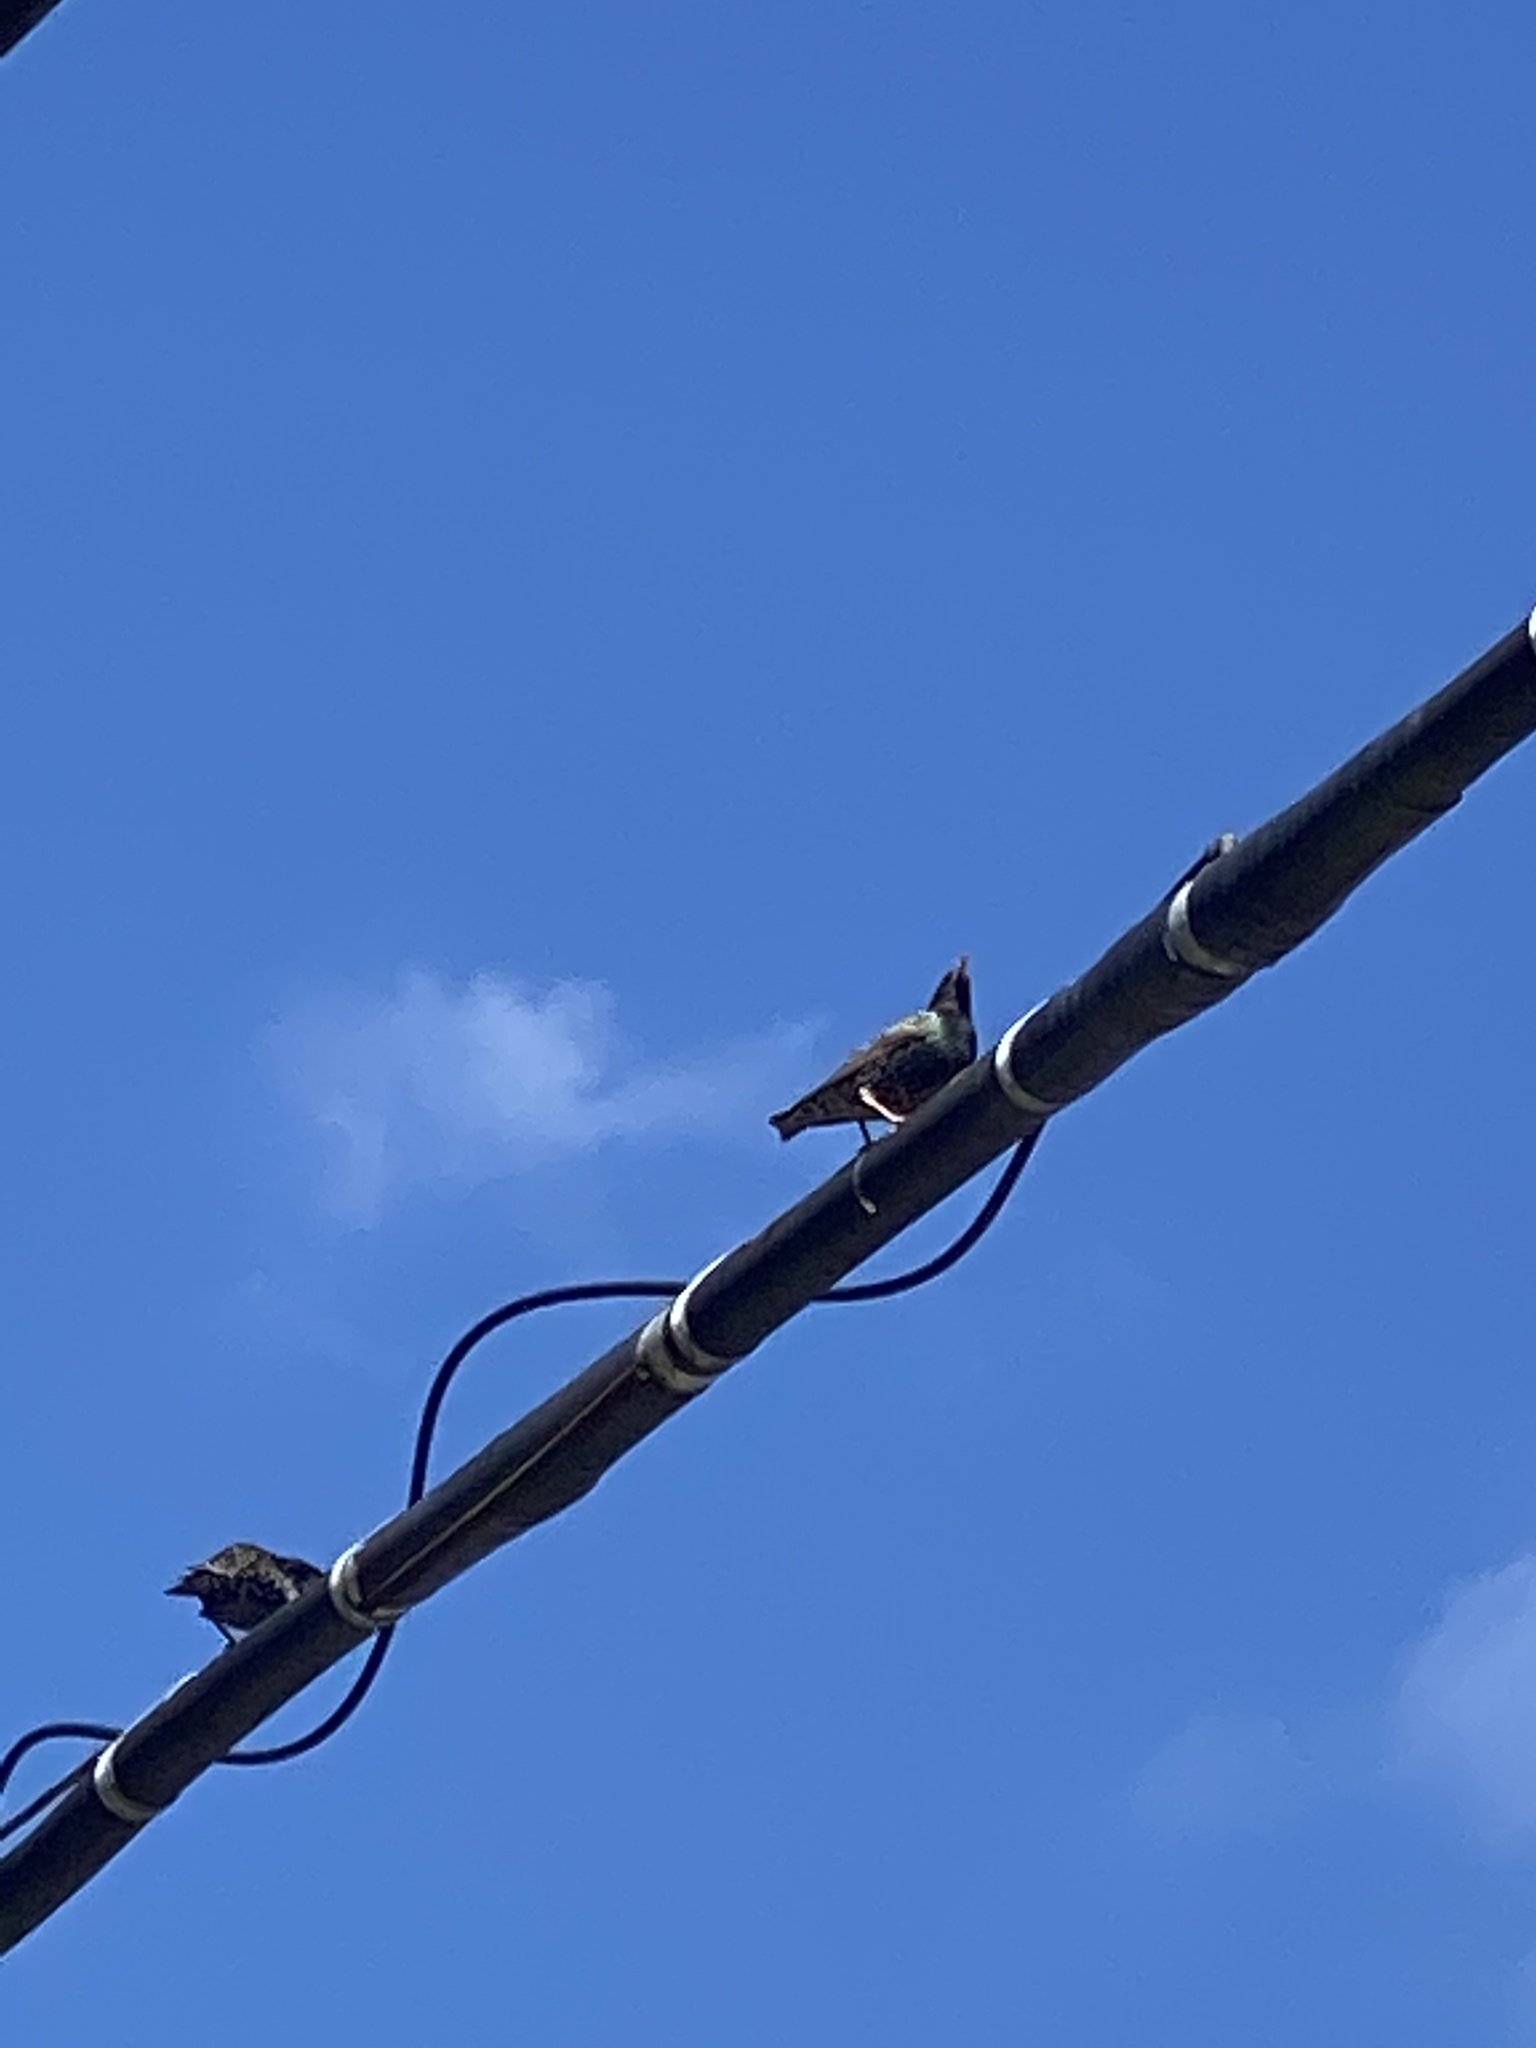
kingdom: Animalia
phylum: Chordata
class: Aves
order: Passeriformes
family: Sturnidae
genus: Sturnus
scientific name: Sturnus vulgaris
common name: Common starling
